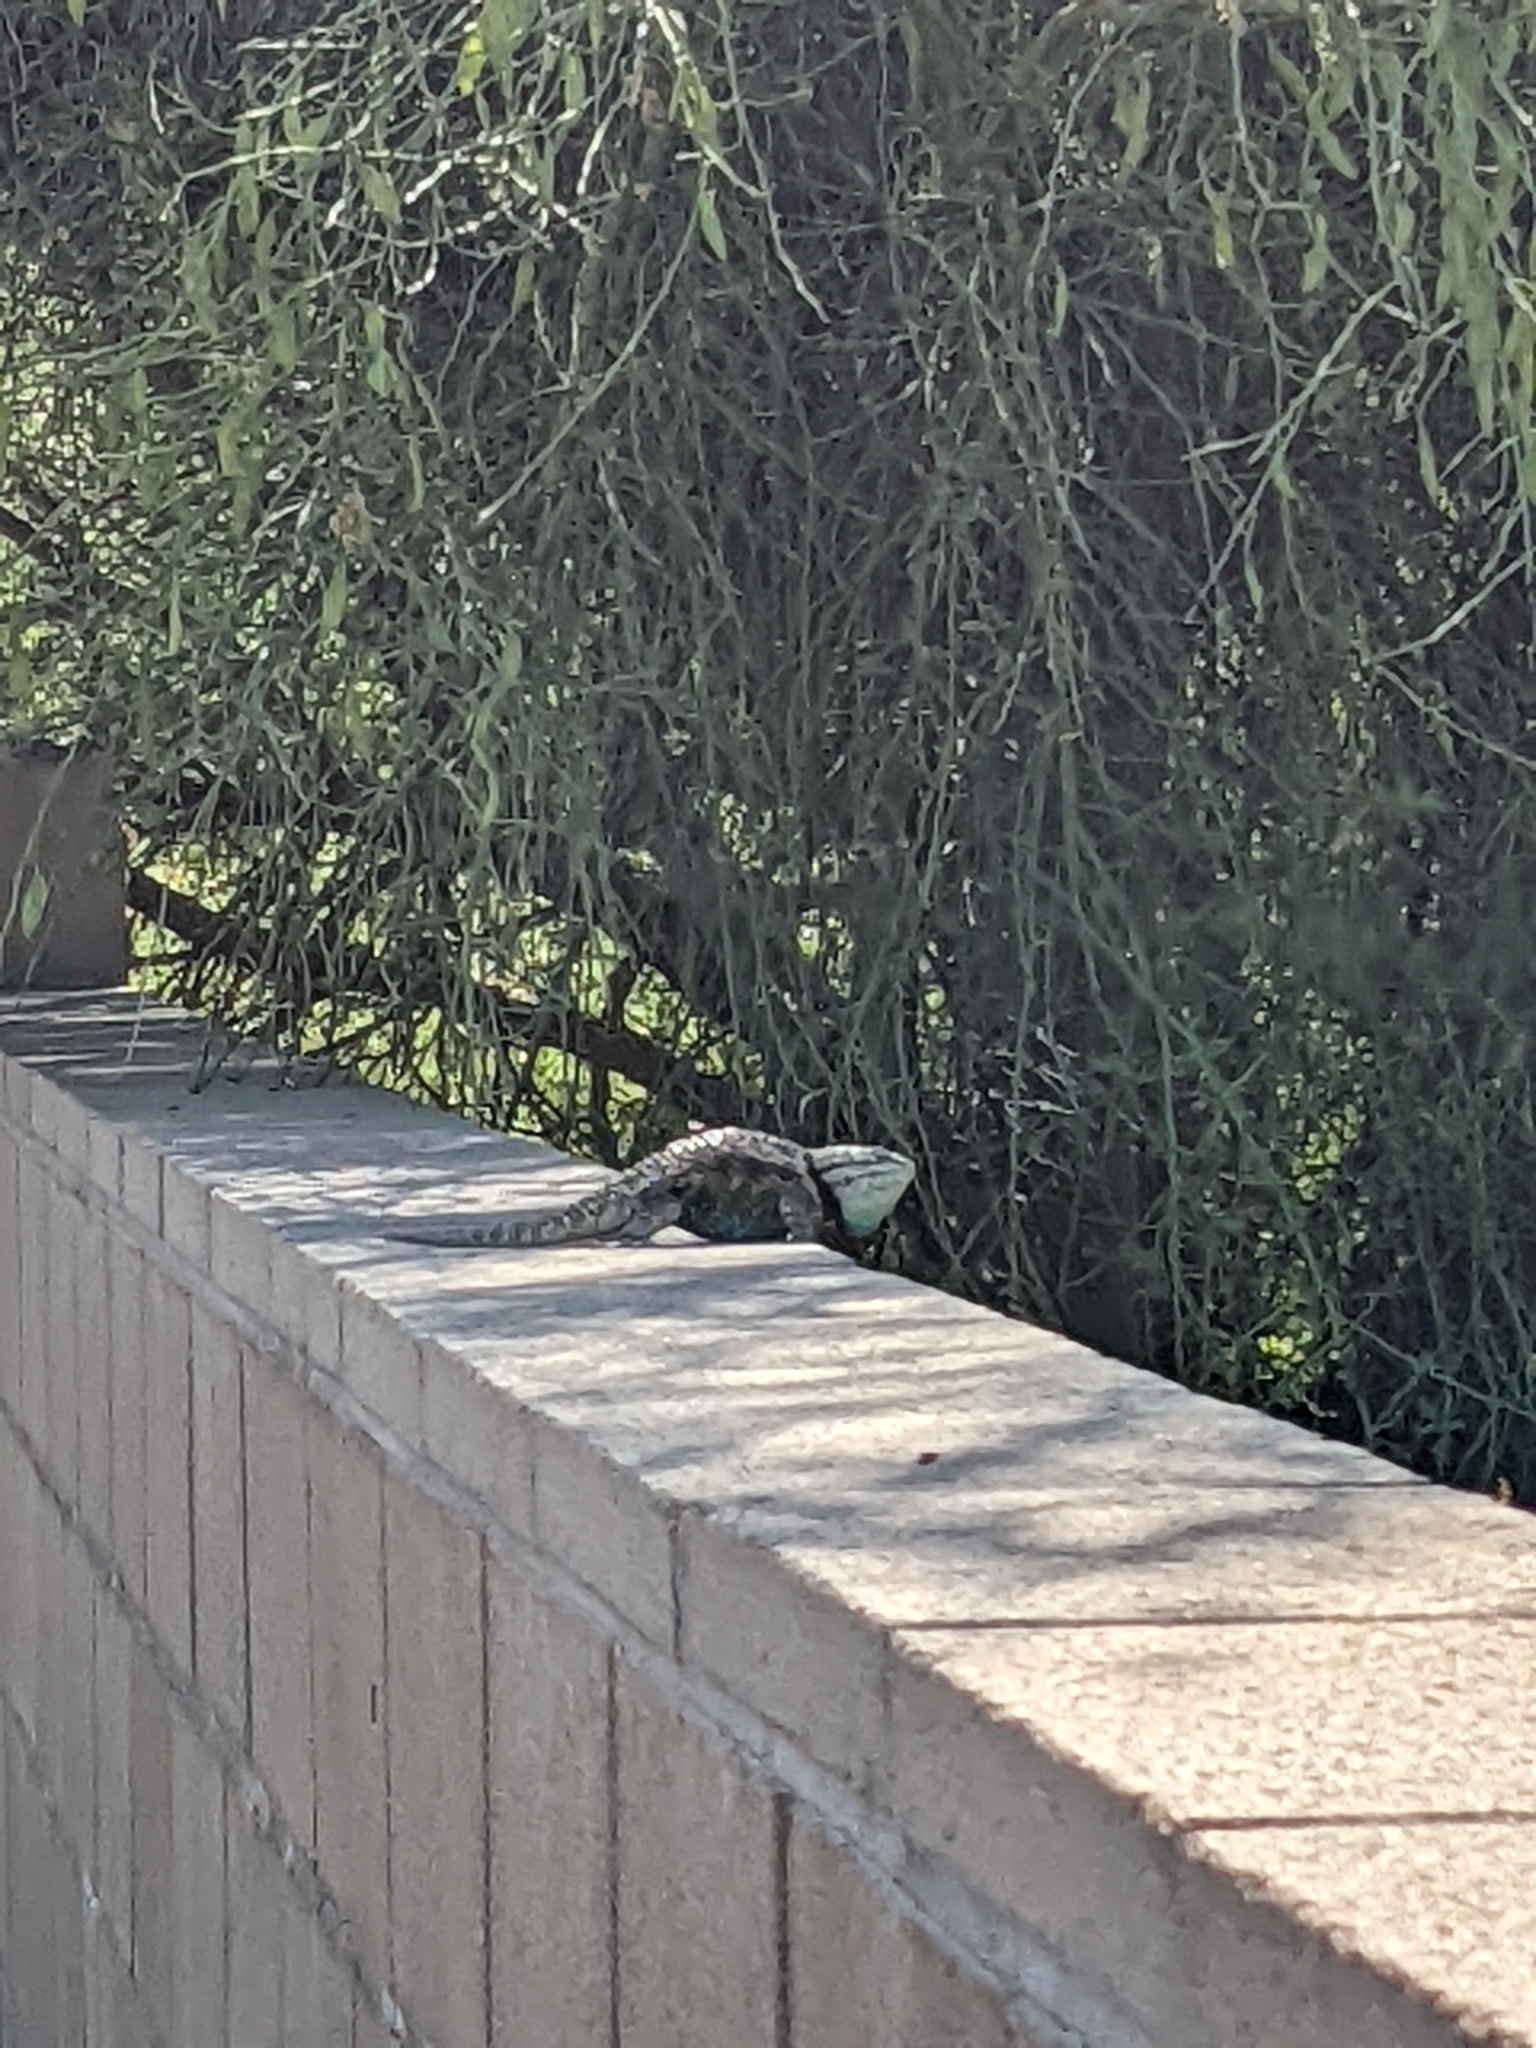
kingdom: Animalia
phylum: Chordata
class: Squamata
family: Phrynosomatidae
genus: Sceloporus
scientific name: Sceloporus magister
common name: Desert spiny lizard
